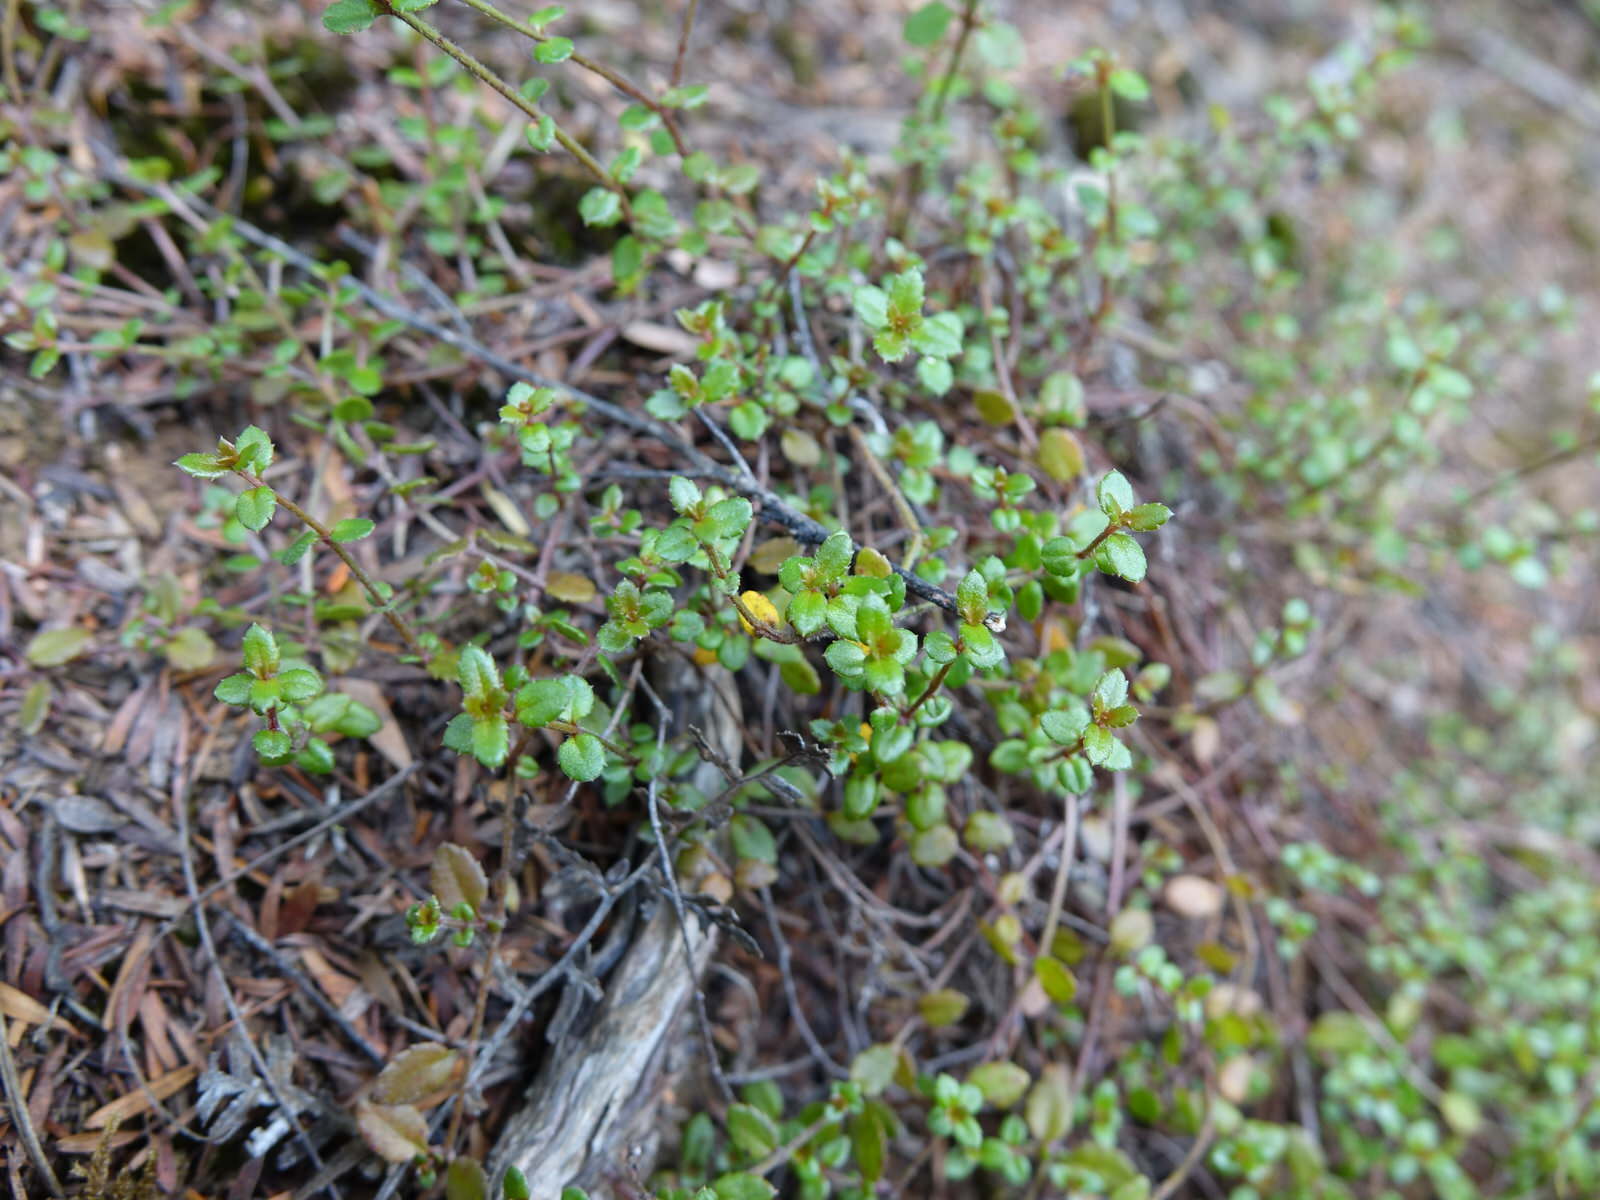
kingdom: Plantae
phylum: Tracheophyta
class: Magnoliopsida
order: Saxifragales
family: Haloragaceae
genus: Gonocarpus
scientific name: Gonocarpus incanus
